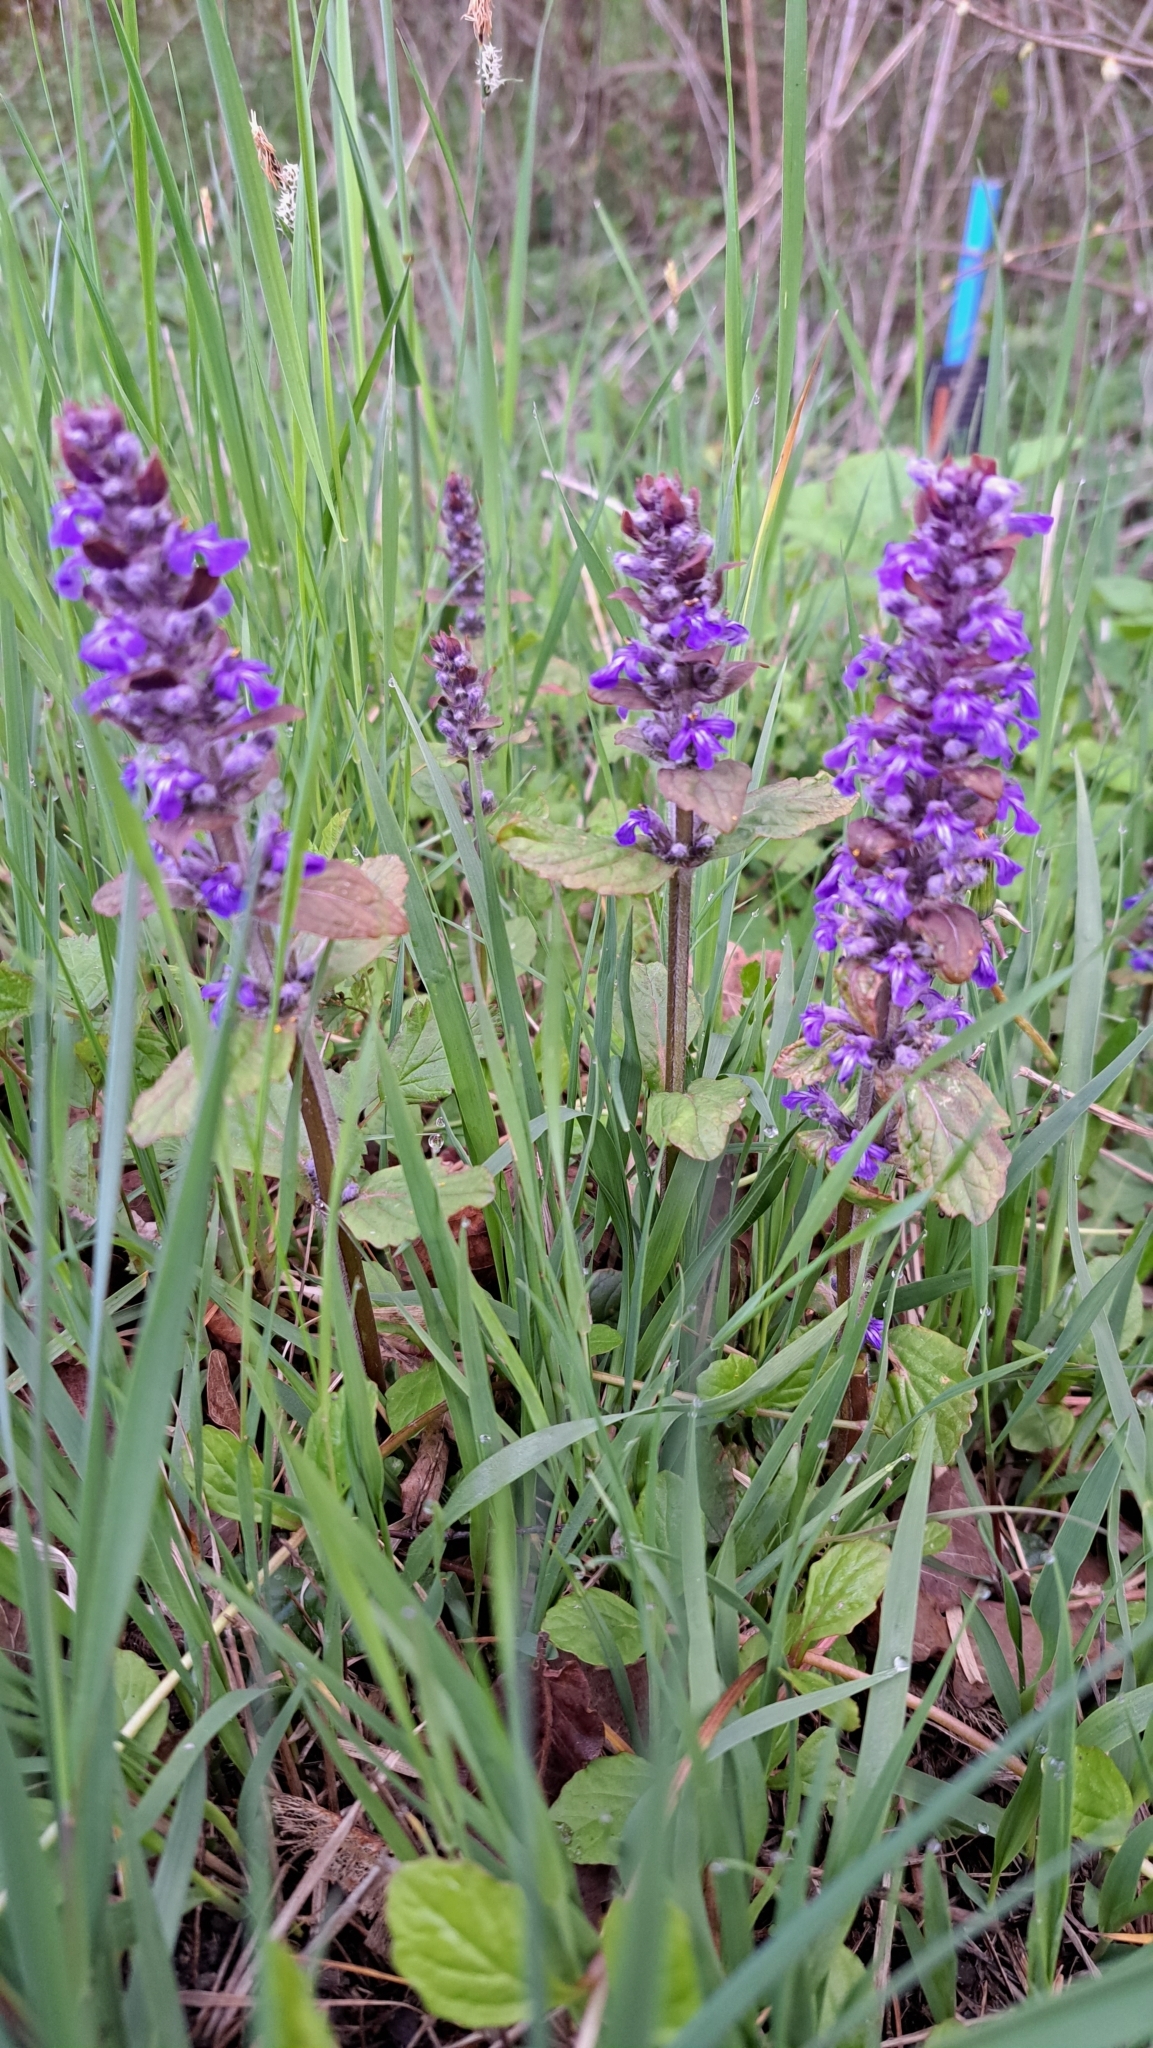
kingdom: Plantae
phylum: Tracheophyta
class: Magnoliopsida
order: Lamiales
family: Lamiaceae
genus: Ajuga
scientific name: Ajuga reptans
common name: Bugle
